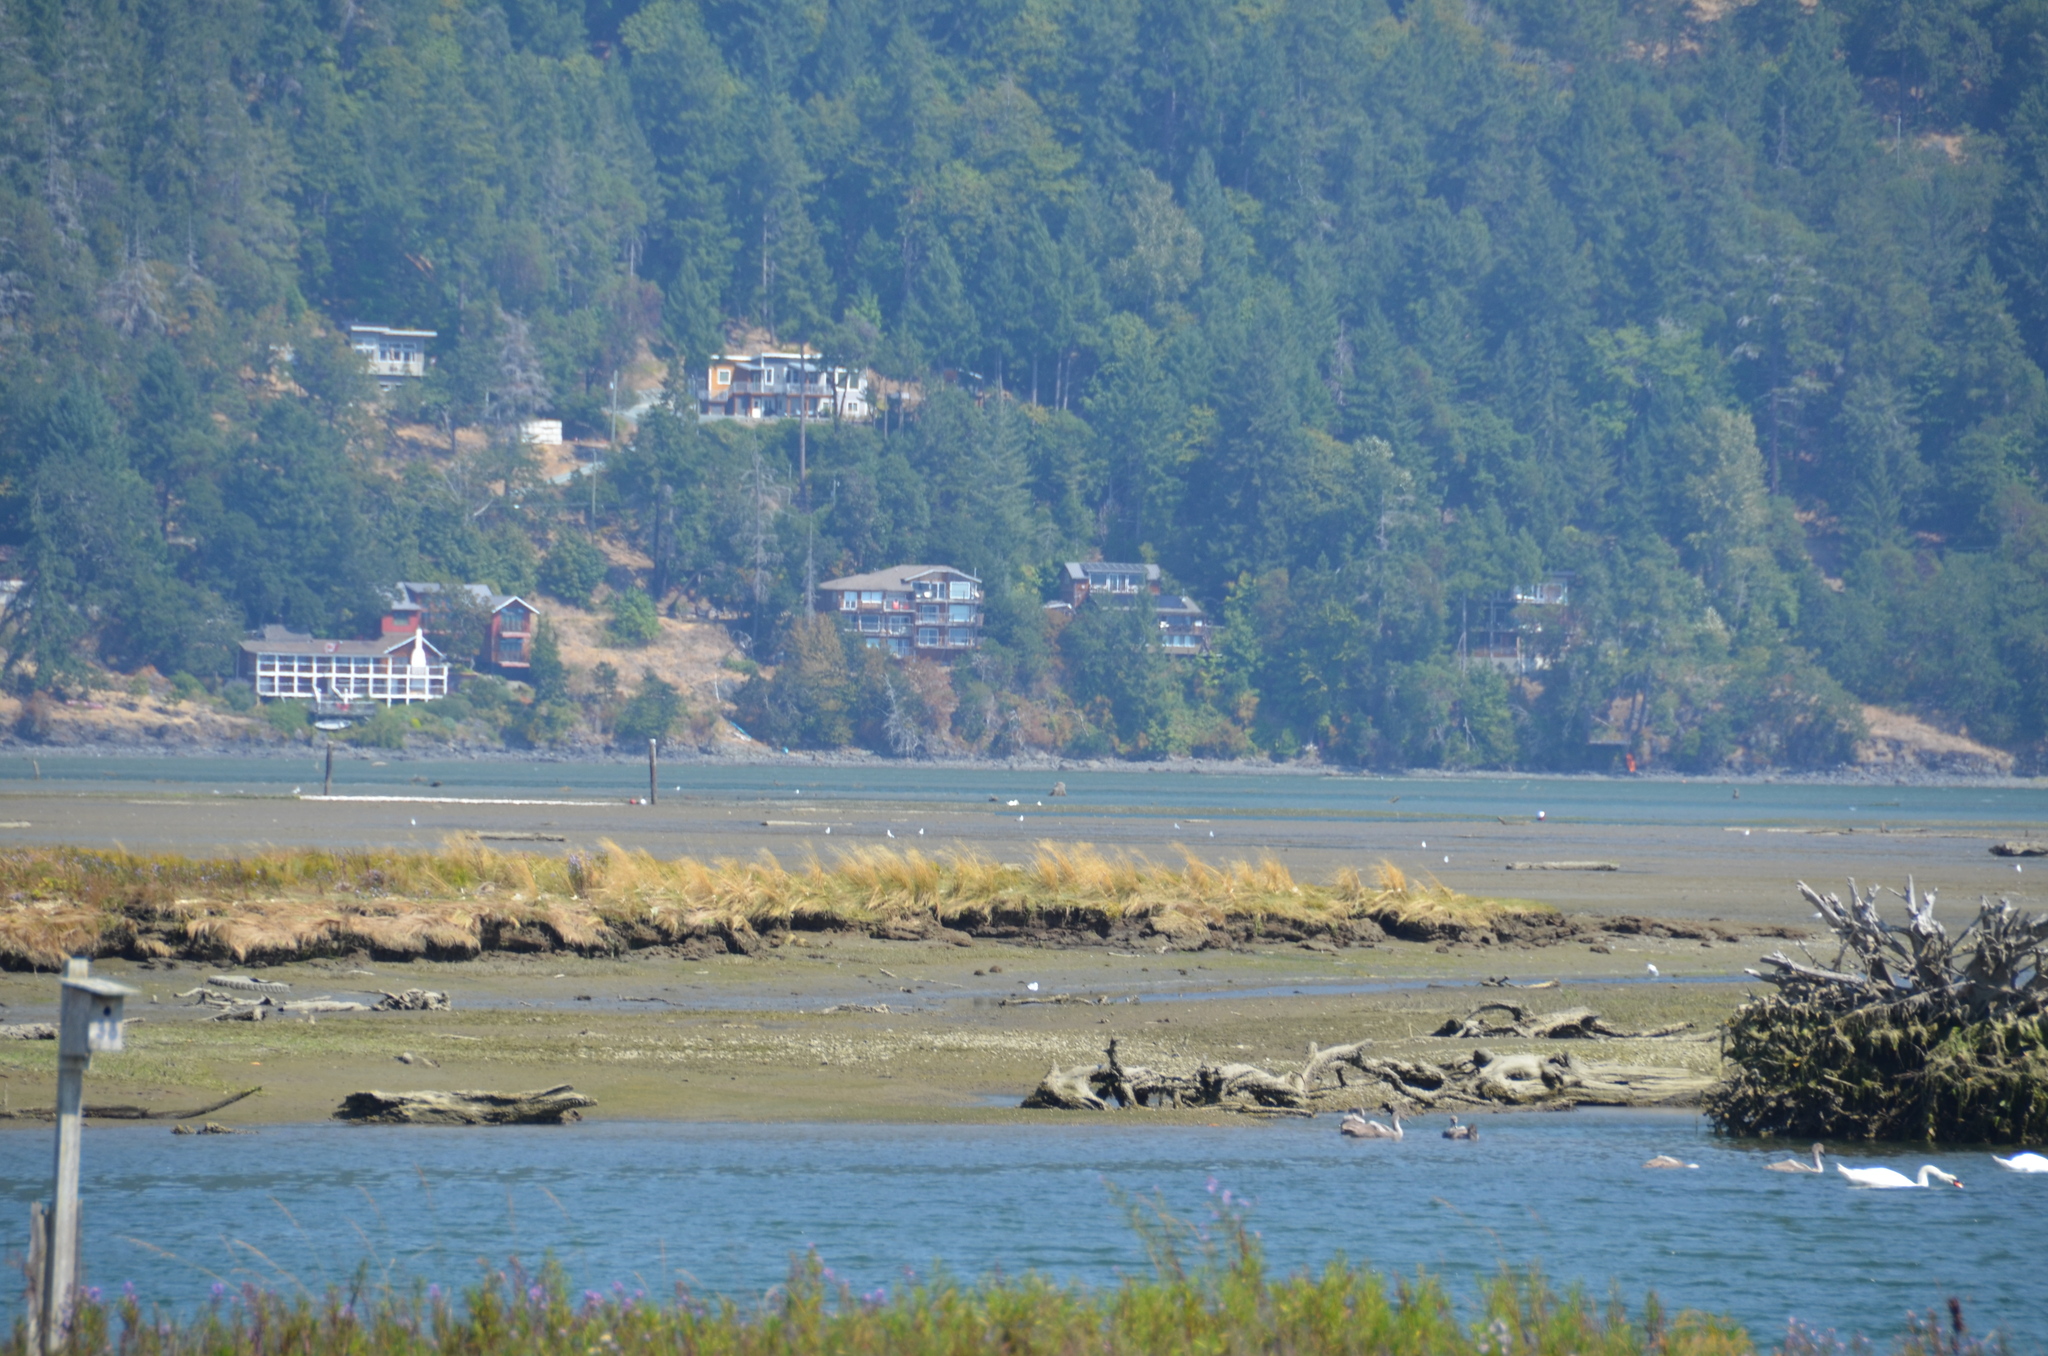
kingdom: Animalia
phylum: Chordata
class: Aves
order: Anseriformes
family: Anatidae
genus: Cygnus
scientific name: Cygnus olor
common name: Mute swan
